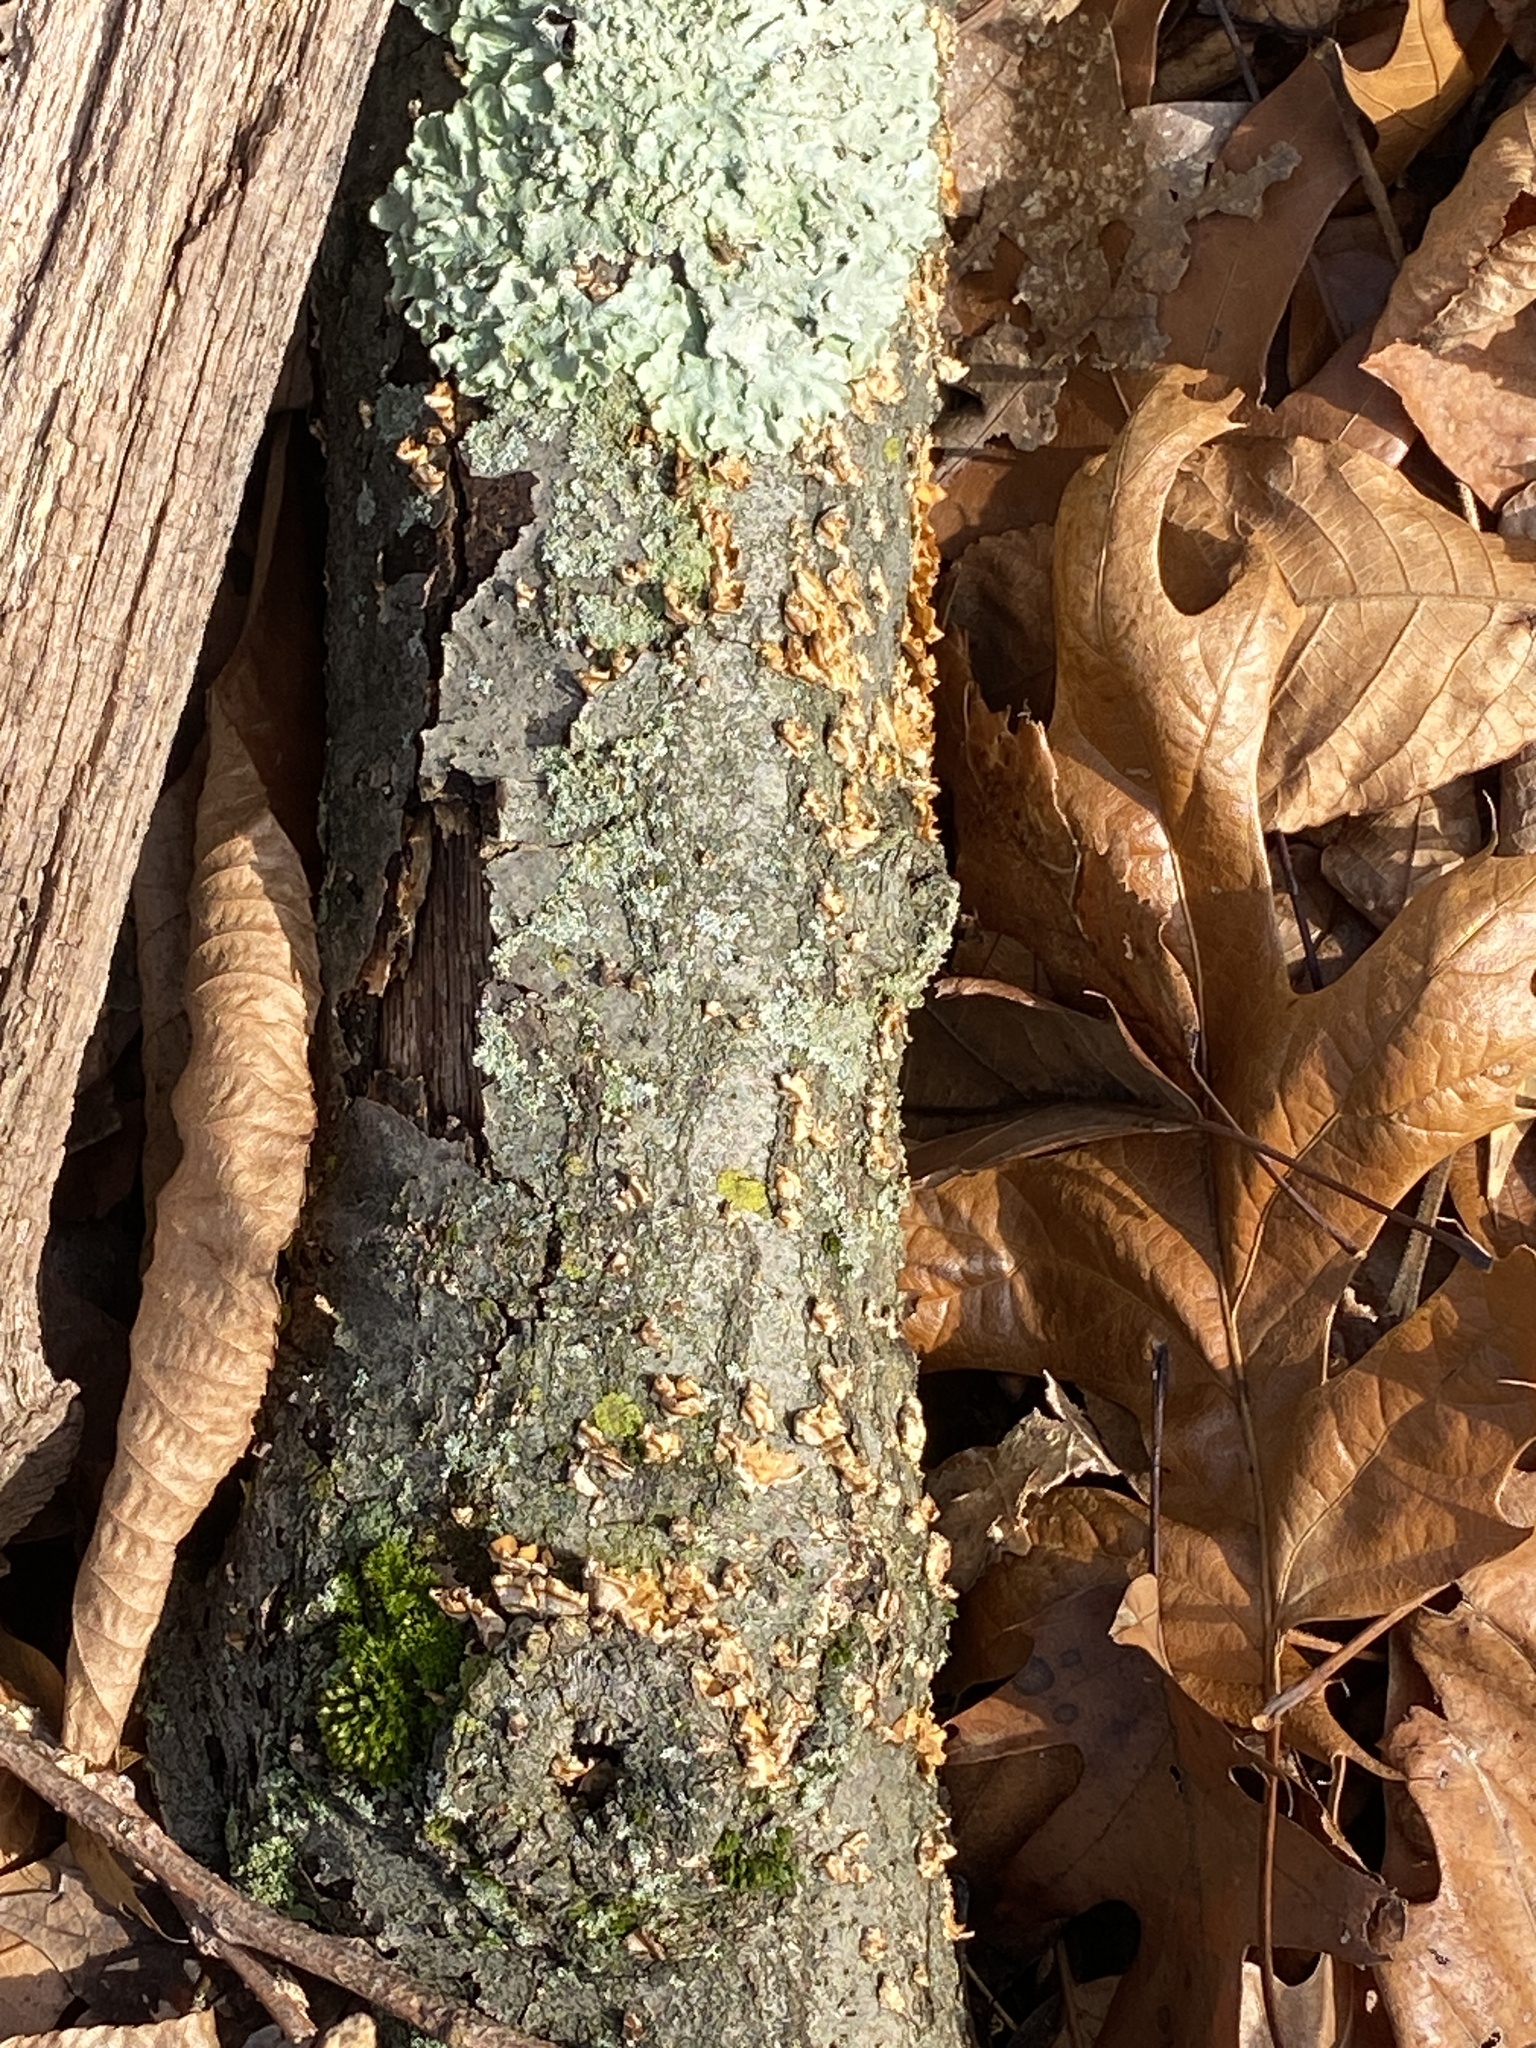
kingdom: Fungi
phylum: Basidiomycota
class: Agaricomycetes
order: Russulales
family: Stereaceae
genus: Stereum
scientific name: Stereum complicatum
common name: Crowded parchment
